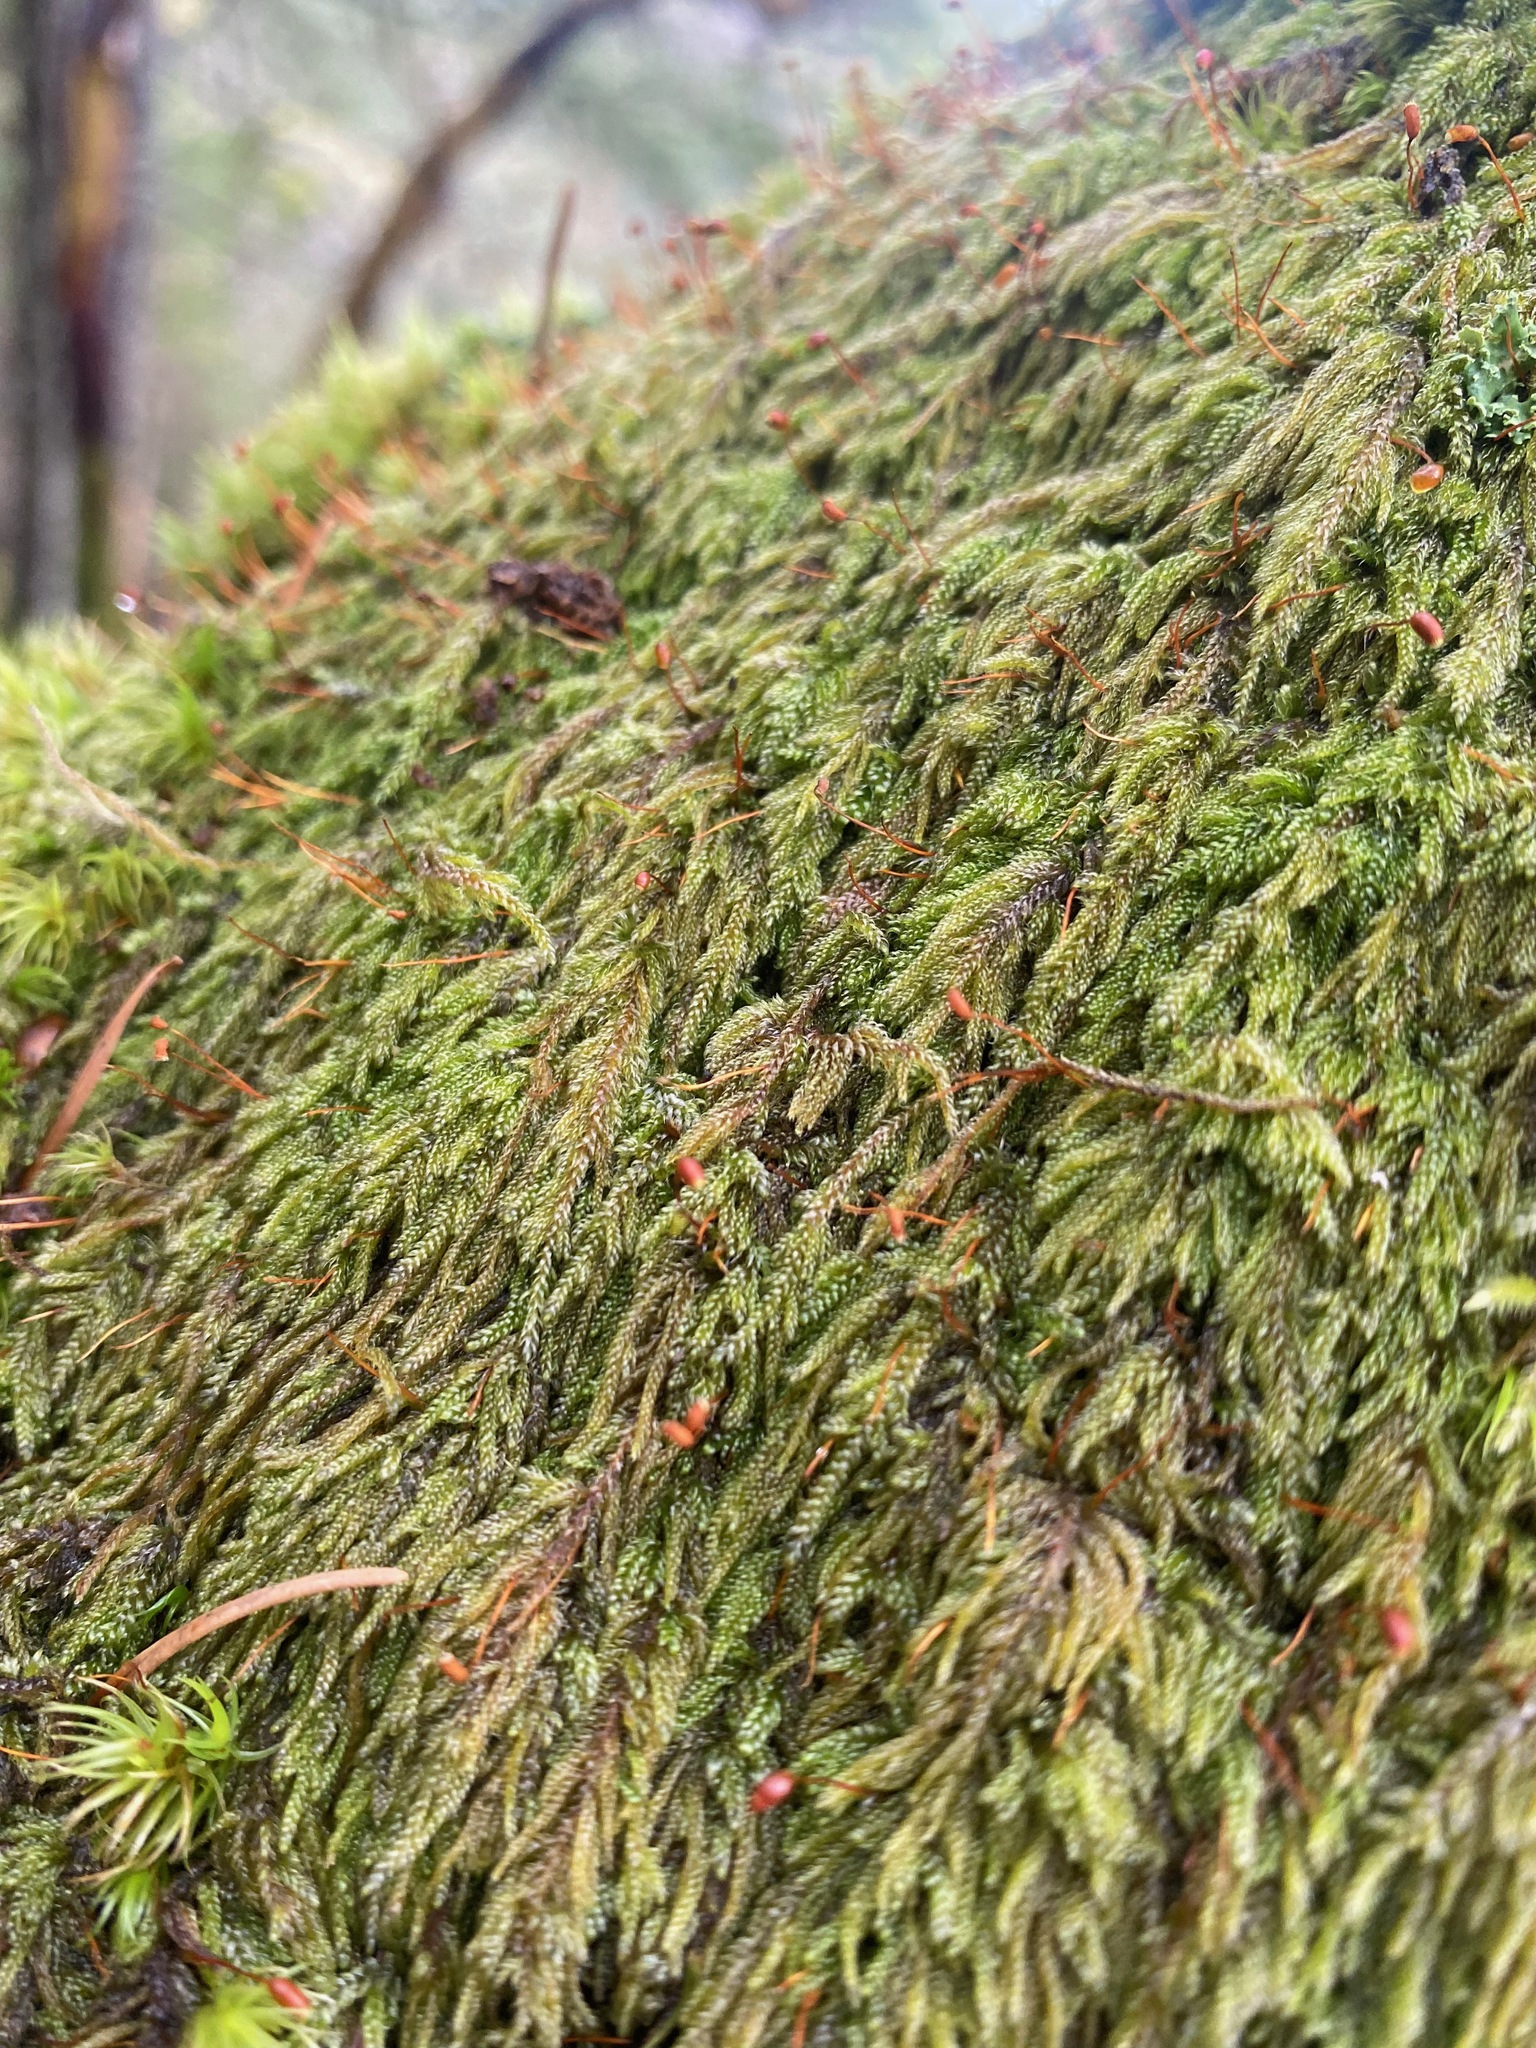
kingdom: Plantae
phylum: Bryophyta
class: Bryopsida
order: Hypnales
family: Pylaisiadelphaceae
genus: Trochophyllohypnum
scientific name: Trochophyllohypnum circinale
